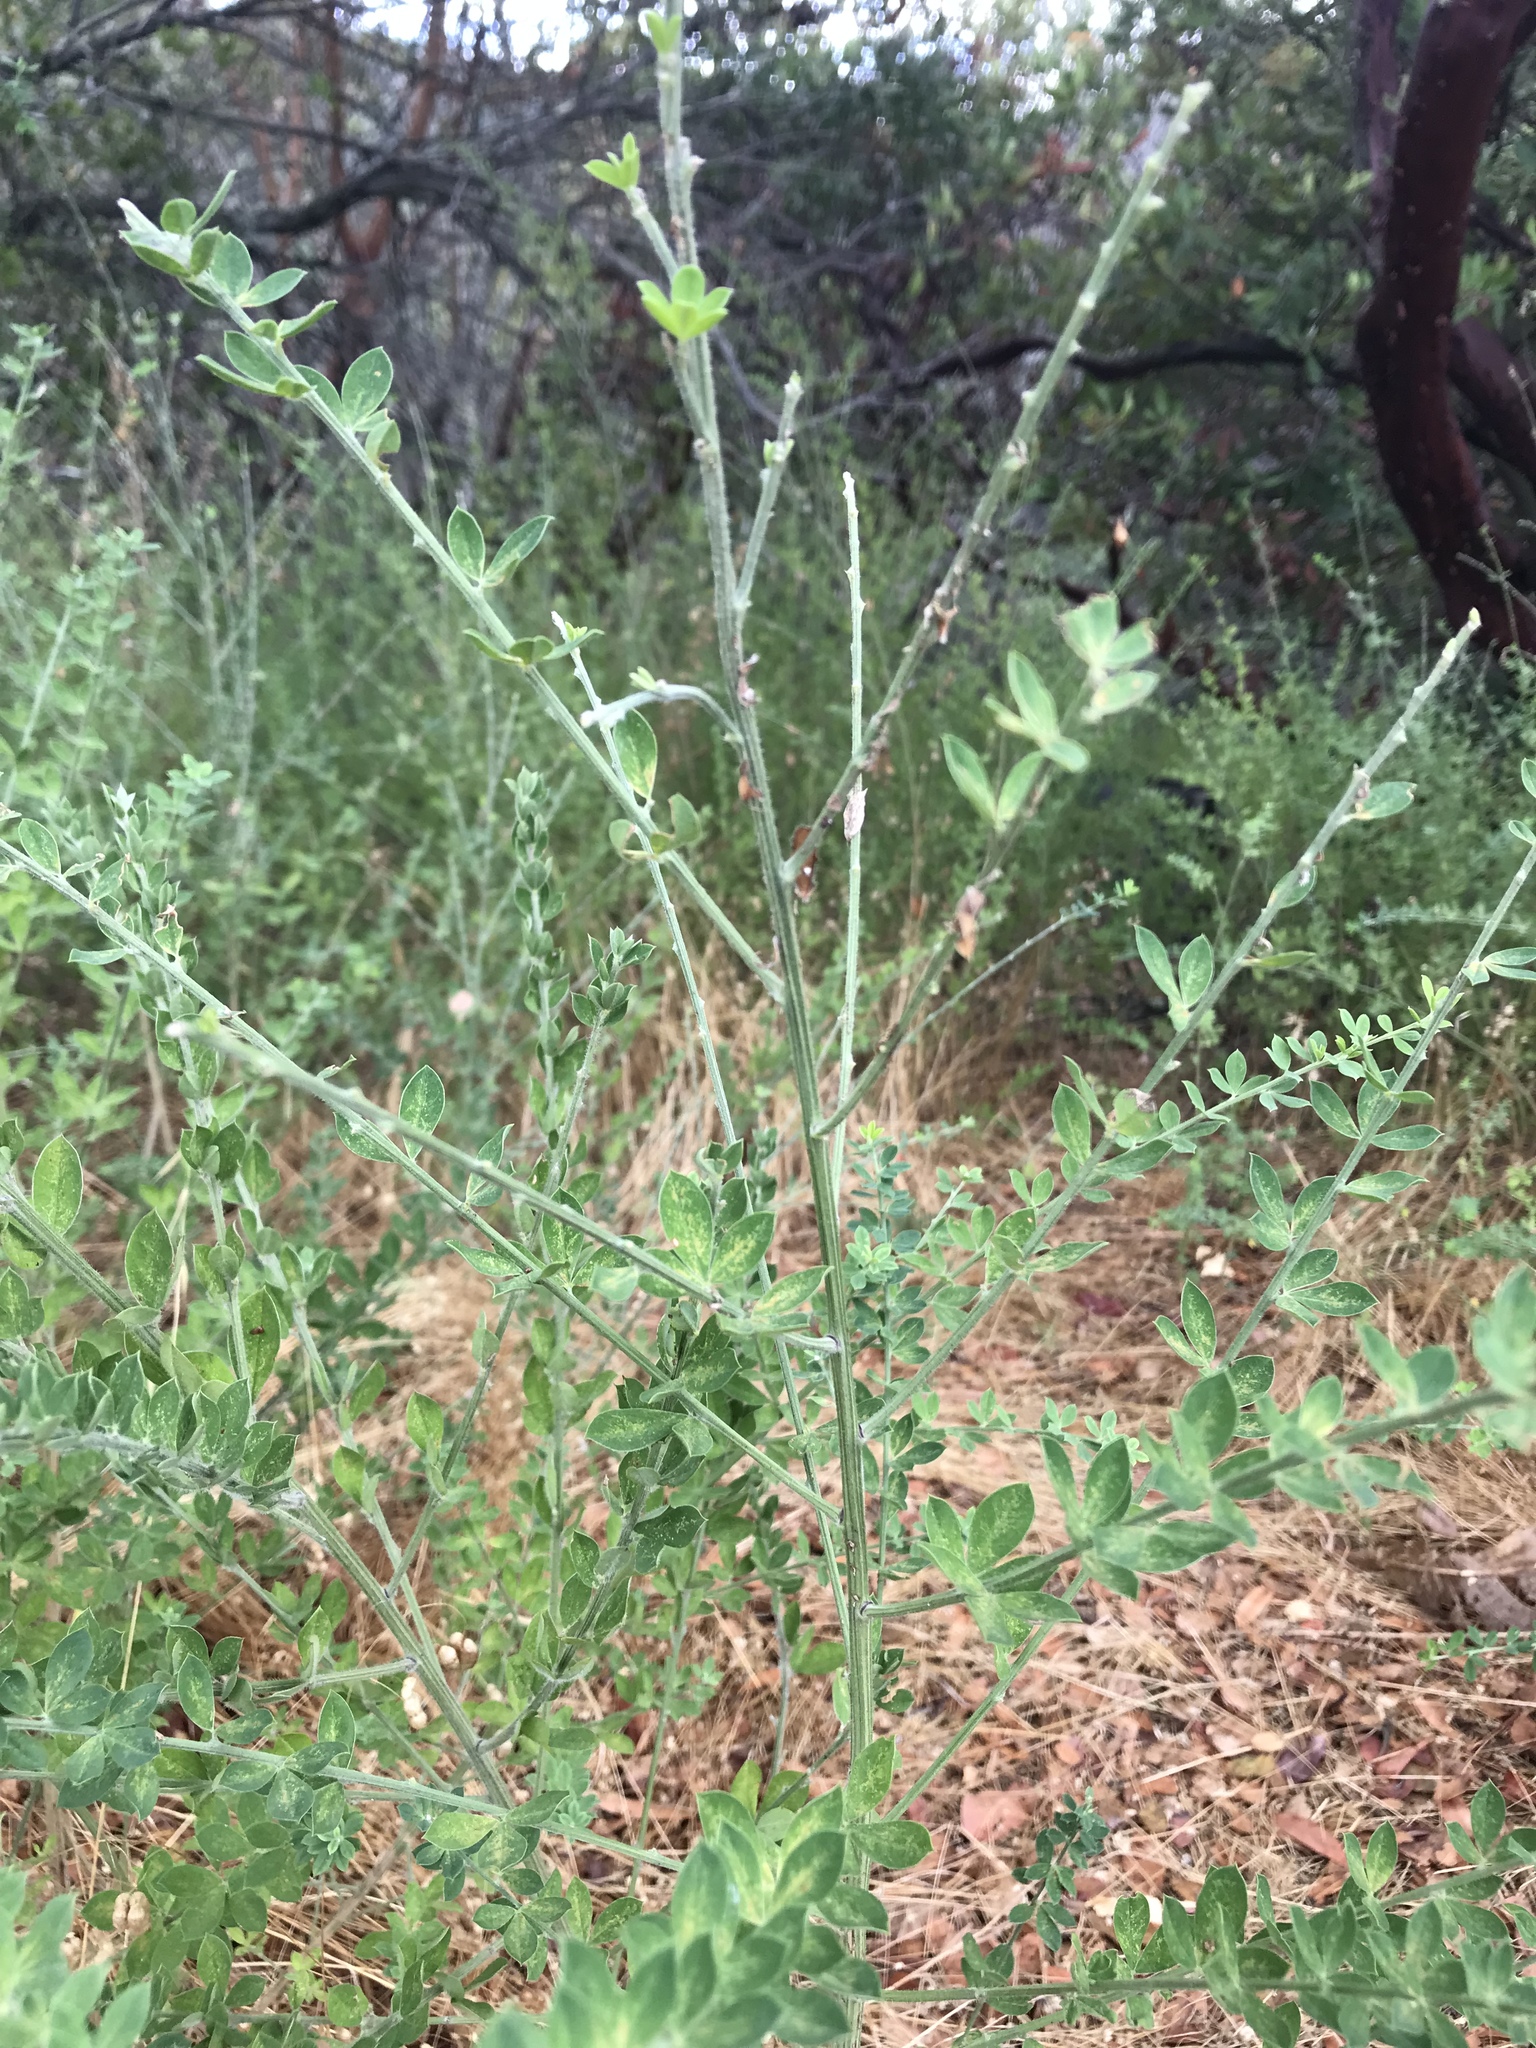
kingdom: Plantae
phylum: Tracheophyta
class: Magnoliopsida
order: Fabales
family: Fabaceae
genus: Genista
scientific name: Genista monspessulana
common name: Montpellier broom
